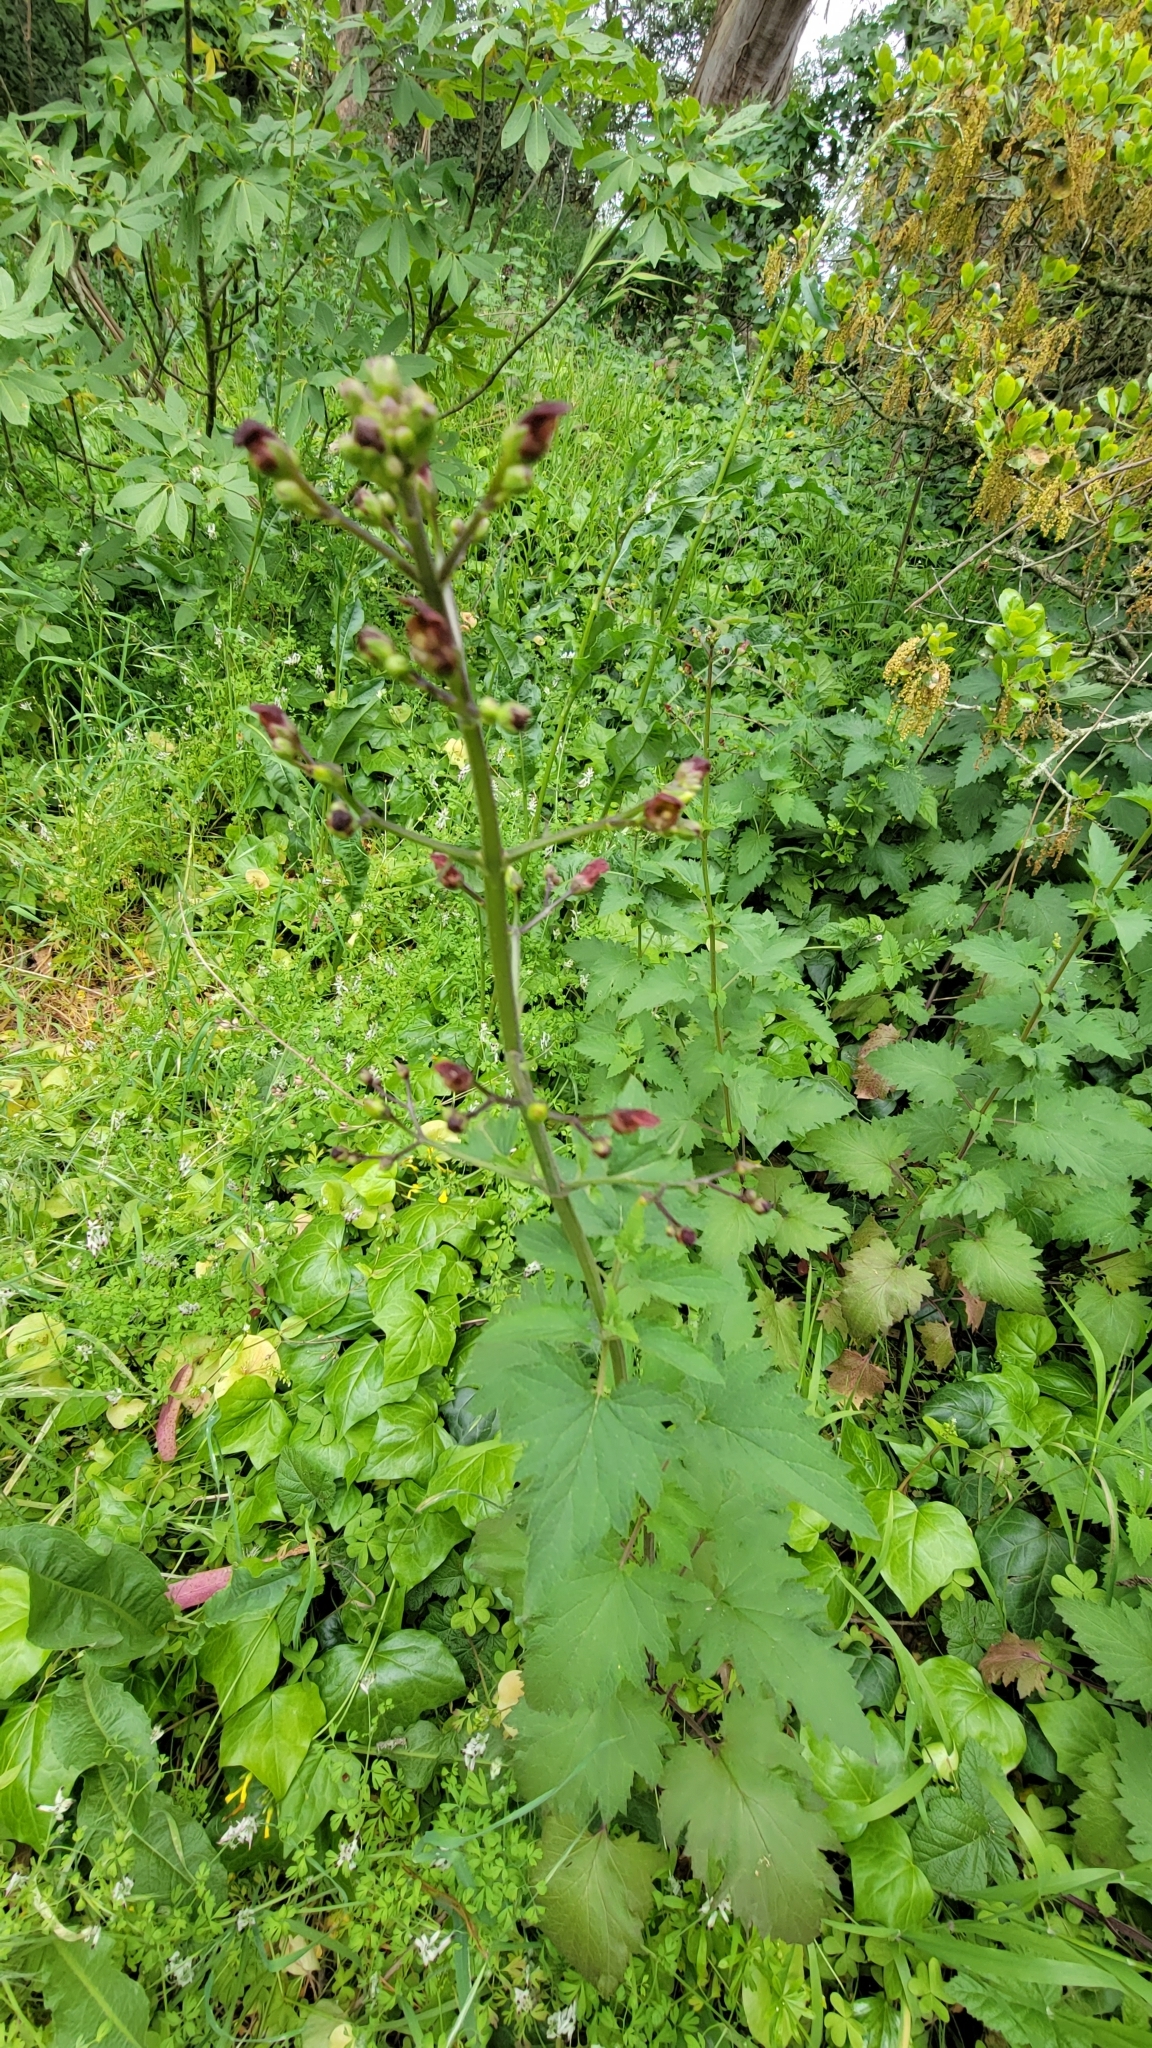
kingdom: Plantae
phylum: Tracheophyta
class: Magnoliopsida
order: Lamiales
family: Scrophulariaceae
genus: Scrophularia
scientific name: Scrophularia californica
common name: California figwort
